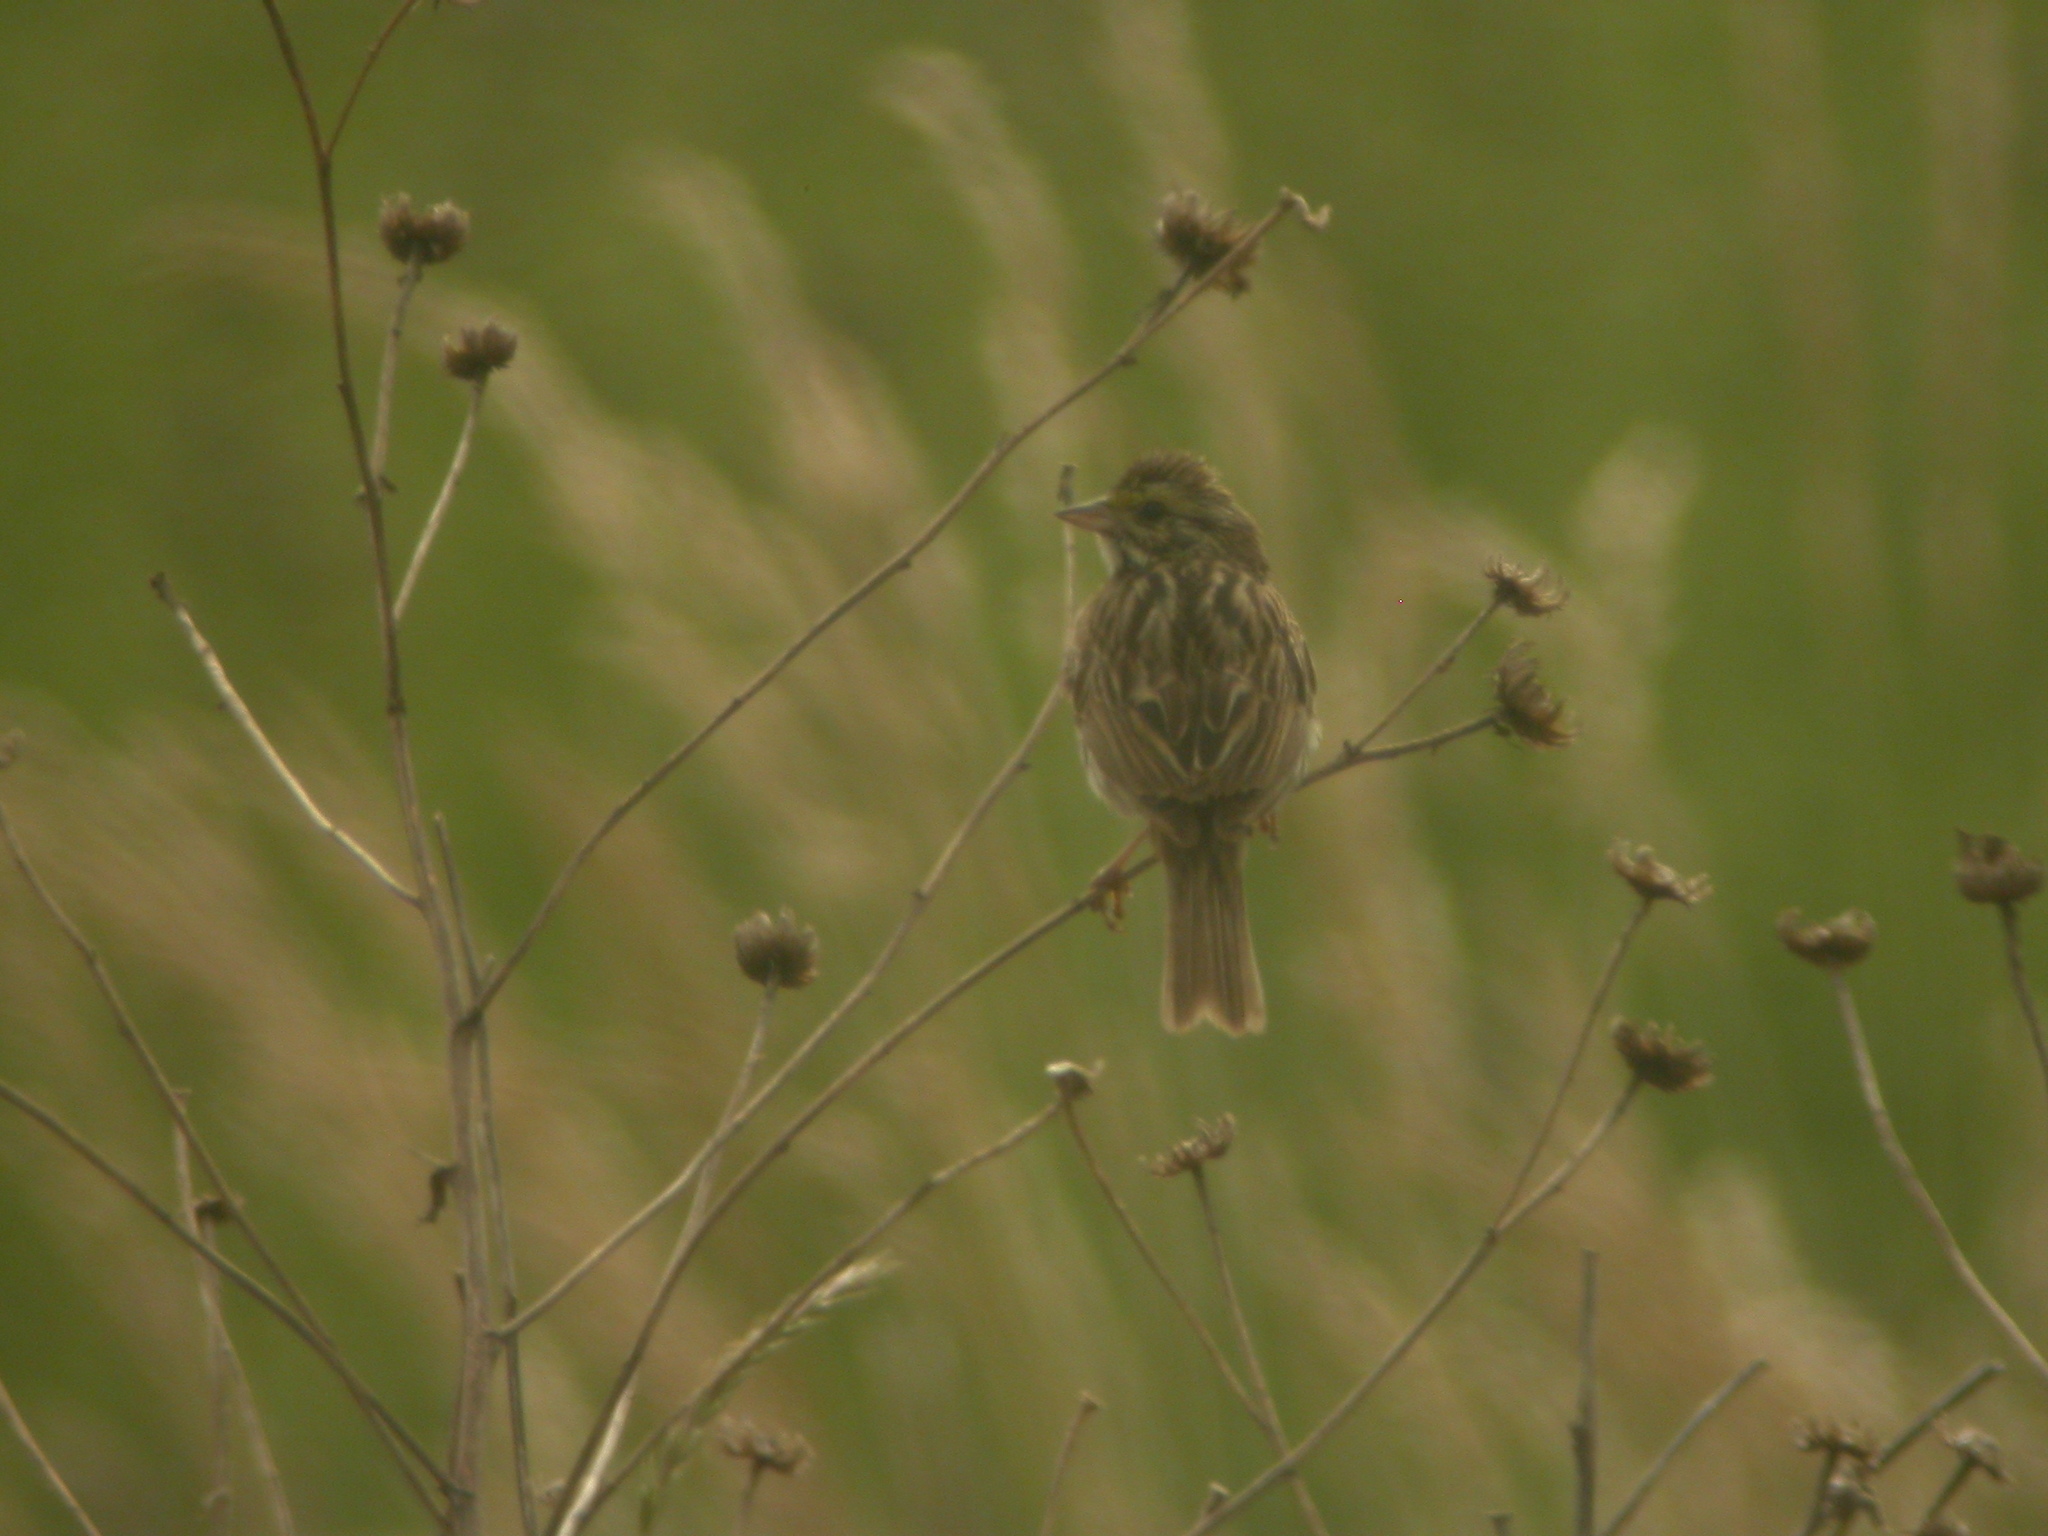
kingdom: Animalia
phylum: Chordata
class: Aves
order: Passeriformes
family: Passerellidae
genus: Passerculus
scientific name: Passerculus sandwichensis
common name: Savannah sparrow
